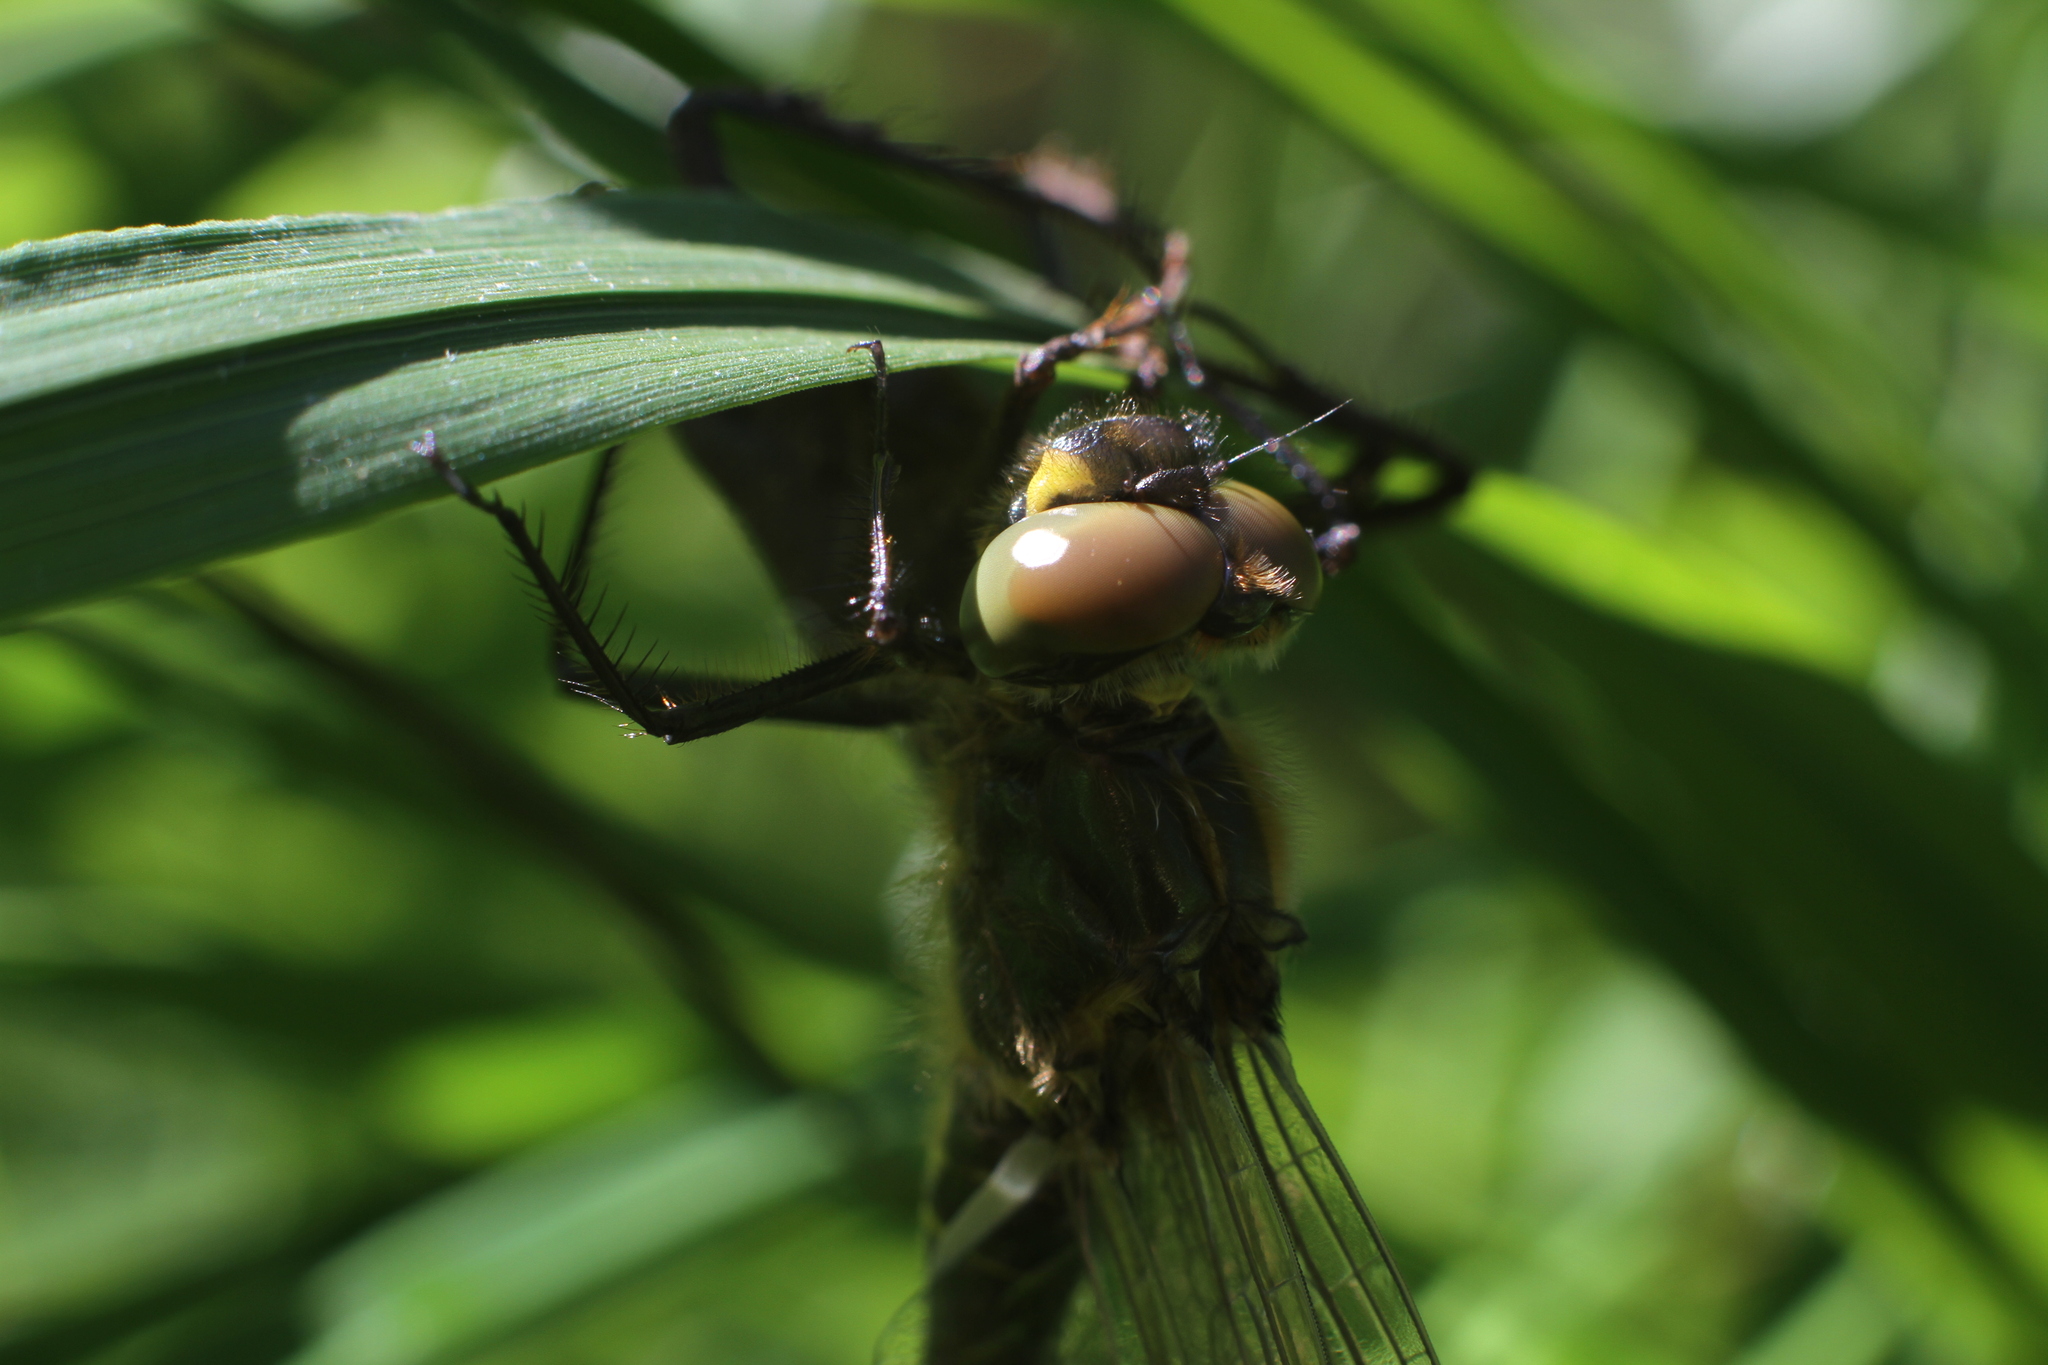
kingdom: Animalia
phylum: Arthropoda
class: Insecta
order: Odonata
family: Corduliidae
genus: Somatochlora
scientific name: Somatochlora metallica
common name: Brilliant emerald
